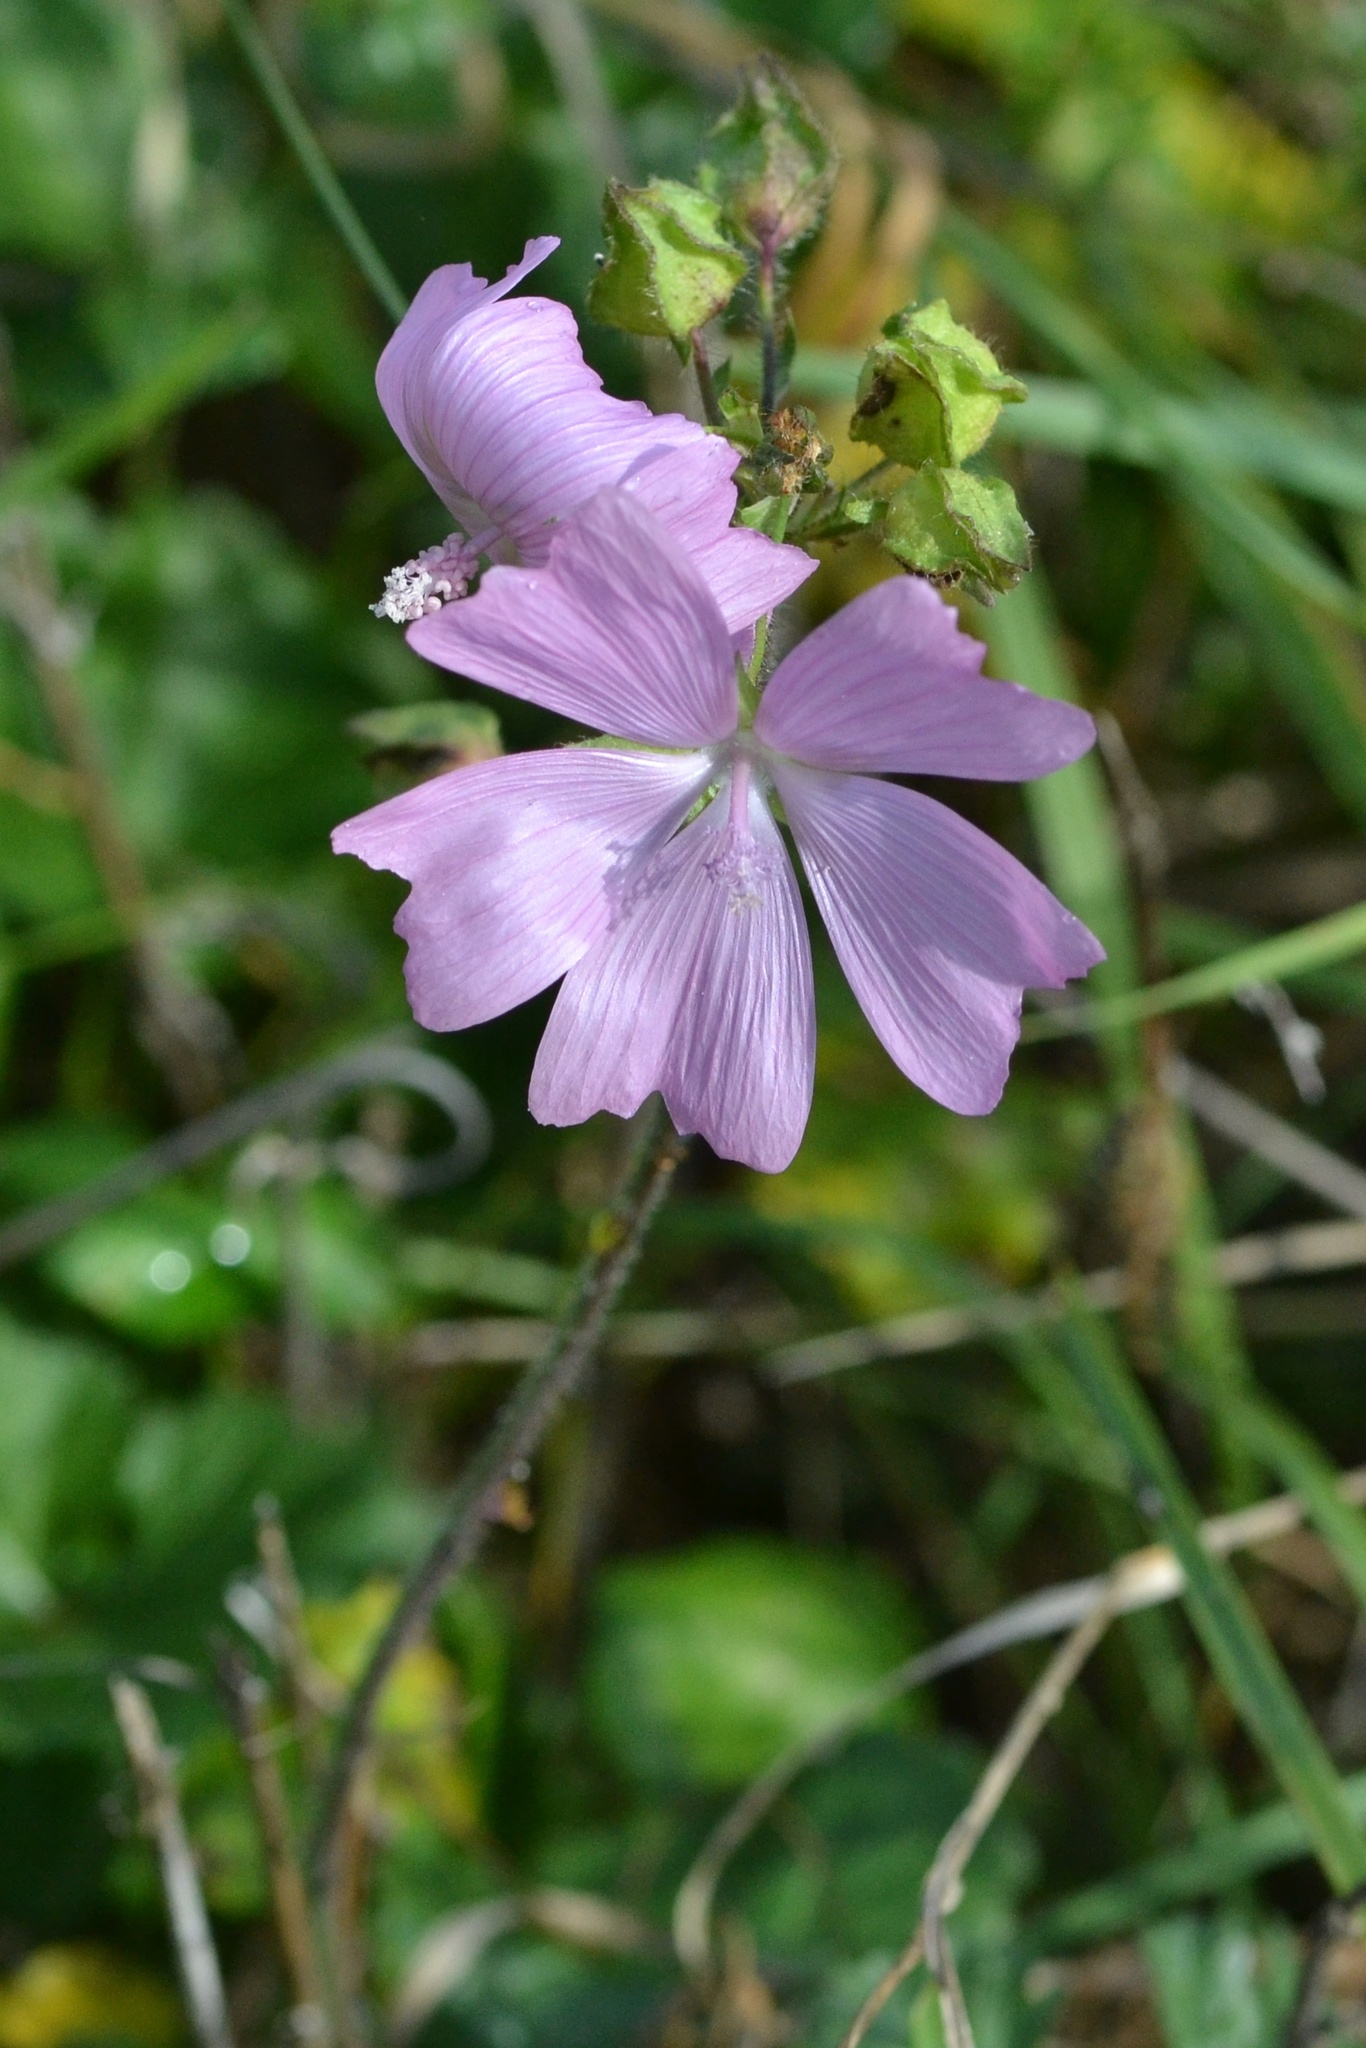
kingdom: Plantae
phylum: Tracheophyta
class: Magnoliopsida
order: Malvales
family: Malvaceae
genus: Malva
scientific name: Malva moschata
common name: Musk mallow
